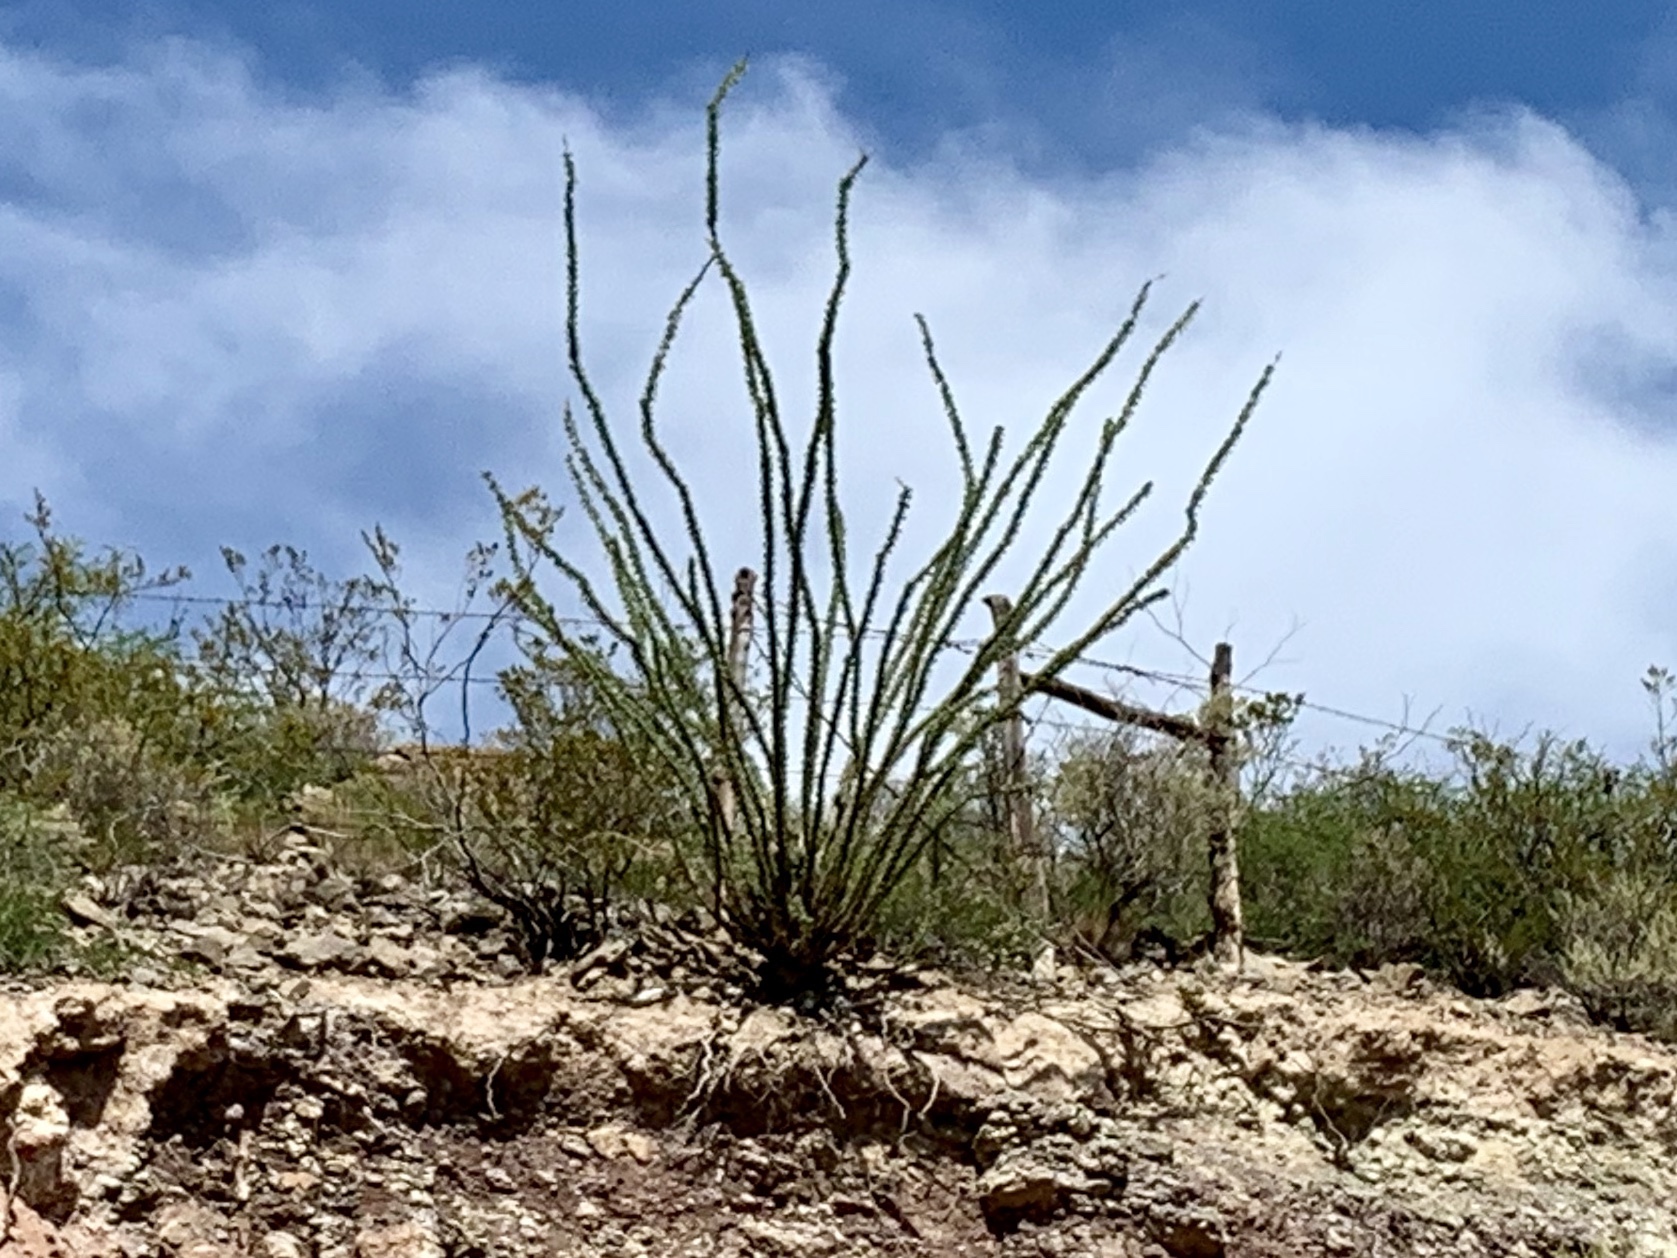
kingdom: Plantae
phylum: Tracheophyta
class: Magnoliopsida
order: Ericales
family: Fouquieriaceae
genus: Fouquieria
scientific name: Fouquieria splendens
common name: Vine-cactus
